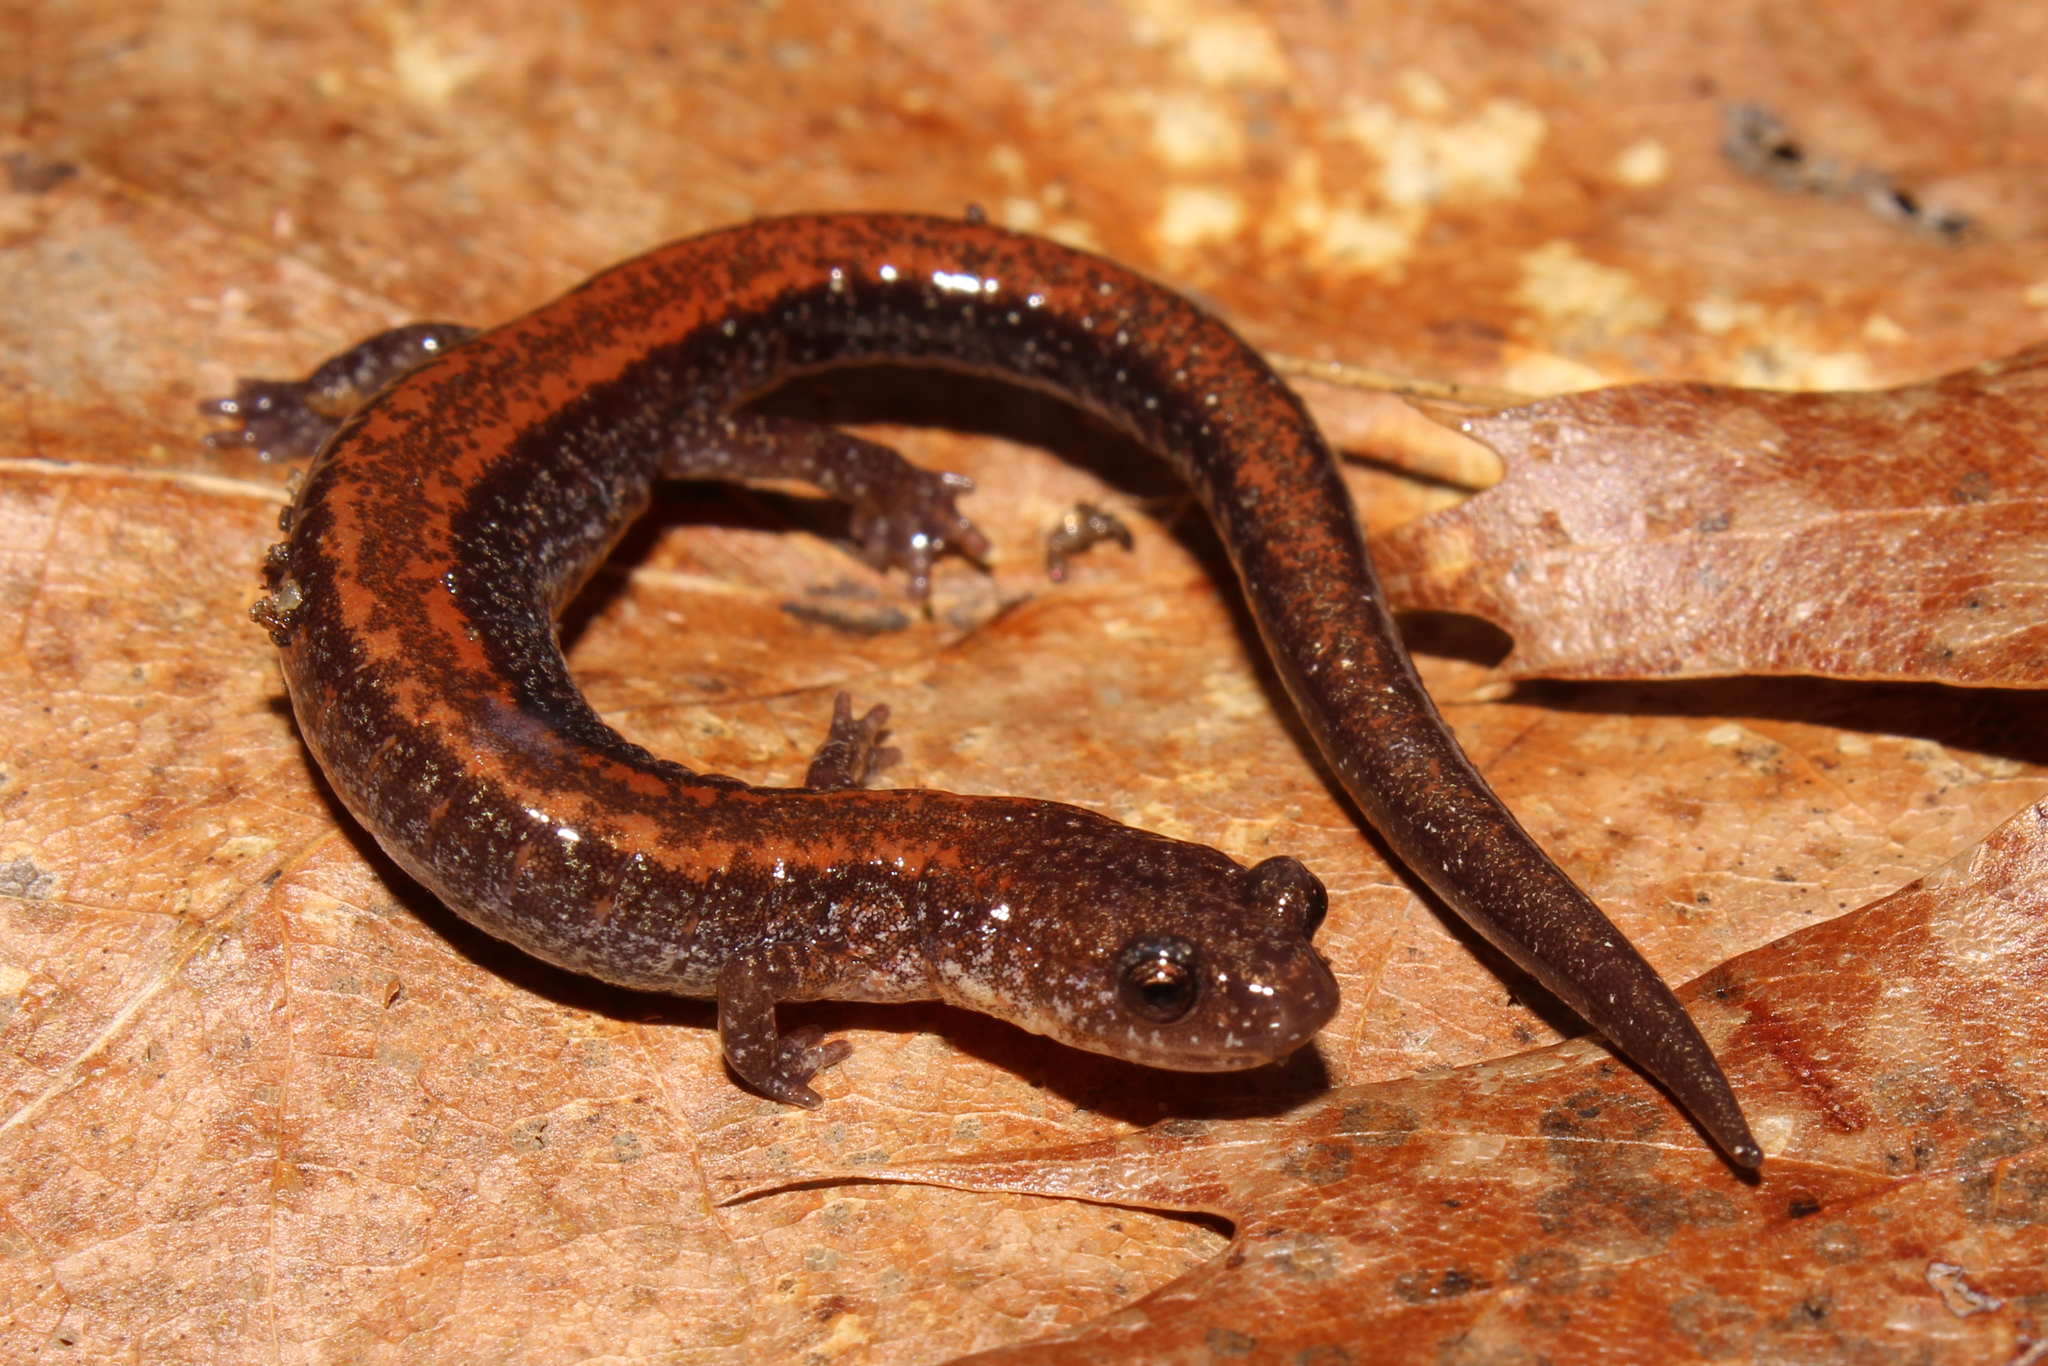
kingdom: Animalia
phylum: Chordata
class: Amphibia
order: Caudata
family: Plethodontidae
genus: Plethodon
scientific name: Plethodon cinereus
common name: Redback salamander
